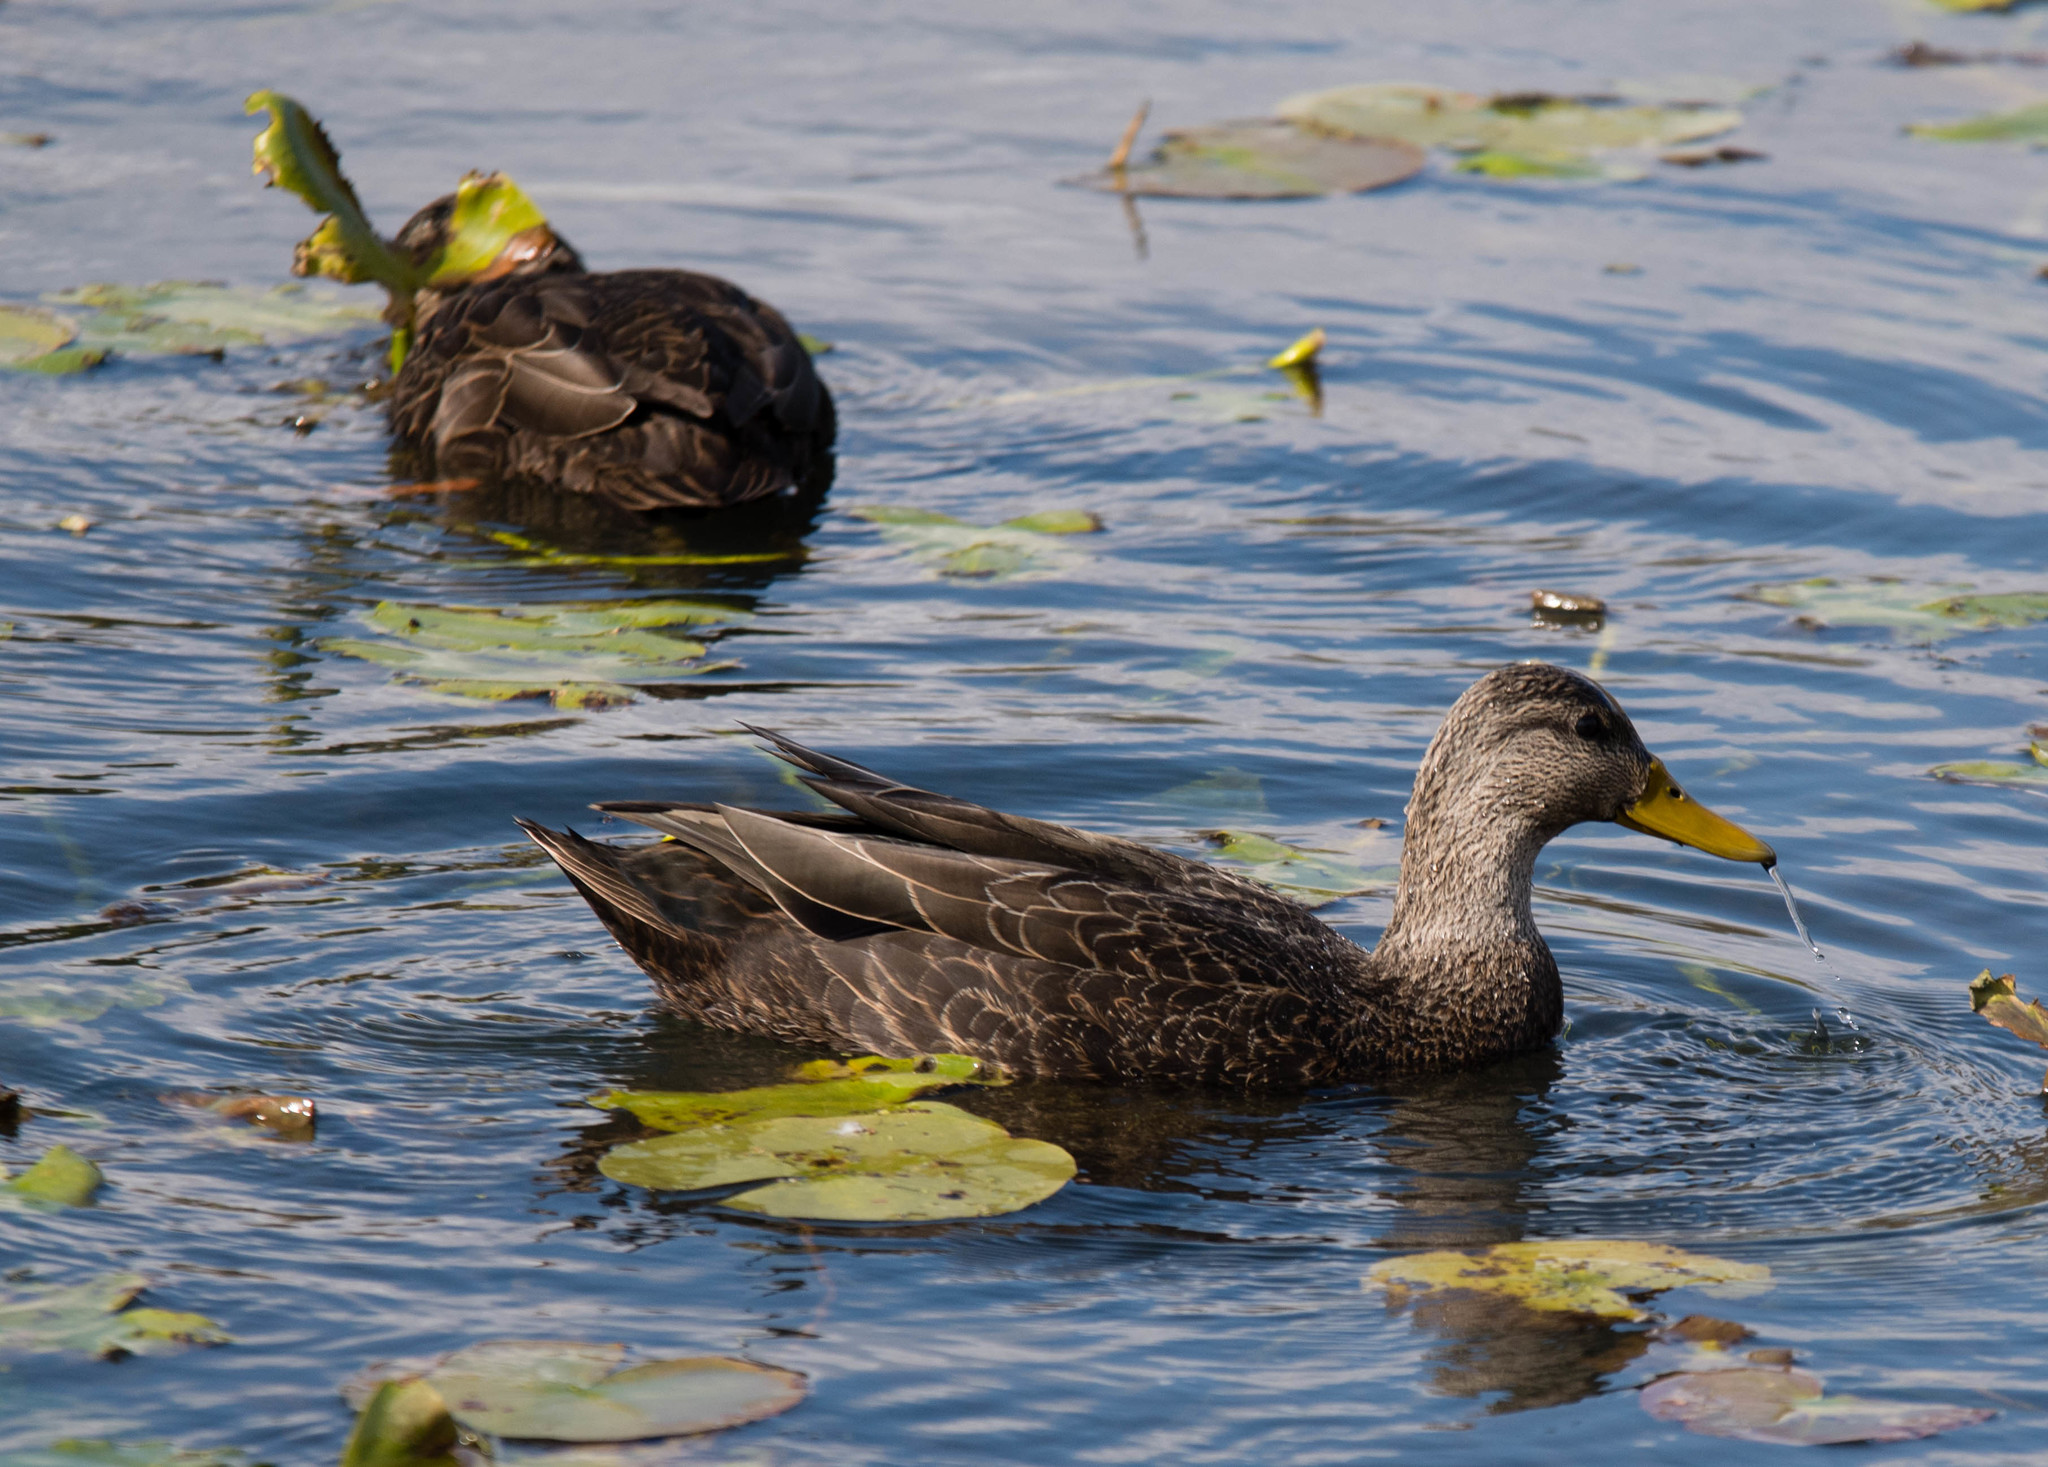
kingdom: Animalia
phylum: Chordata
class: Aves
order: Anseriformes
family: Anatidae
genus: Anas
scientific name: Anas rubripes
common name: American black duck
